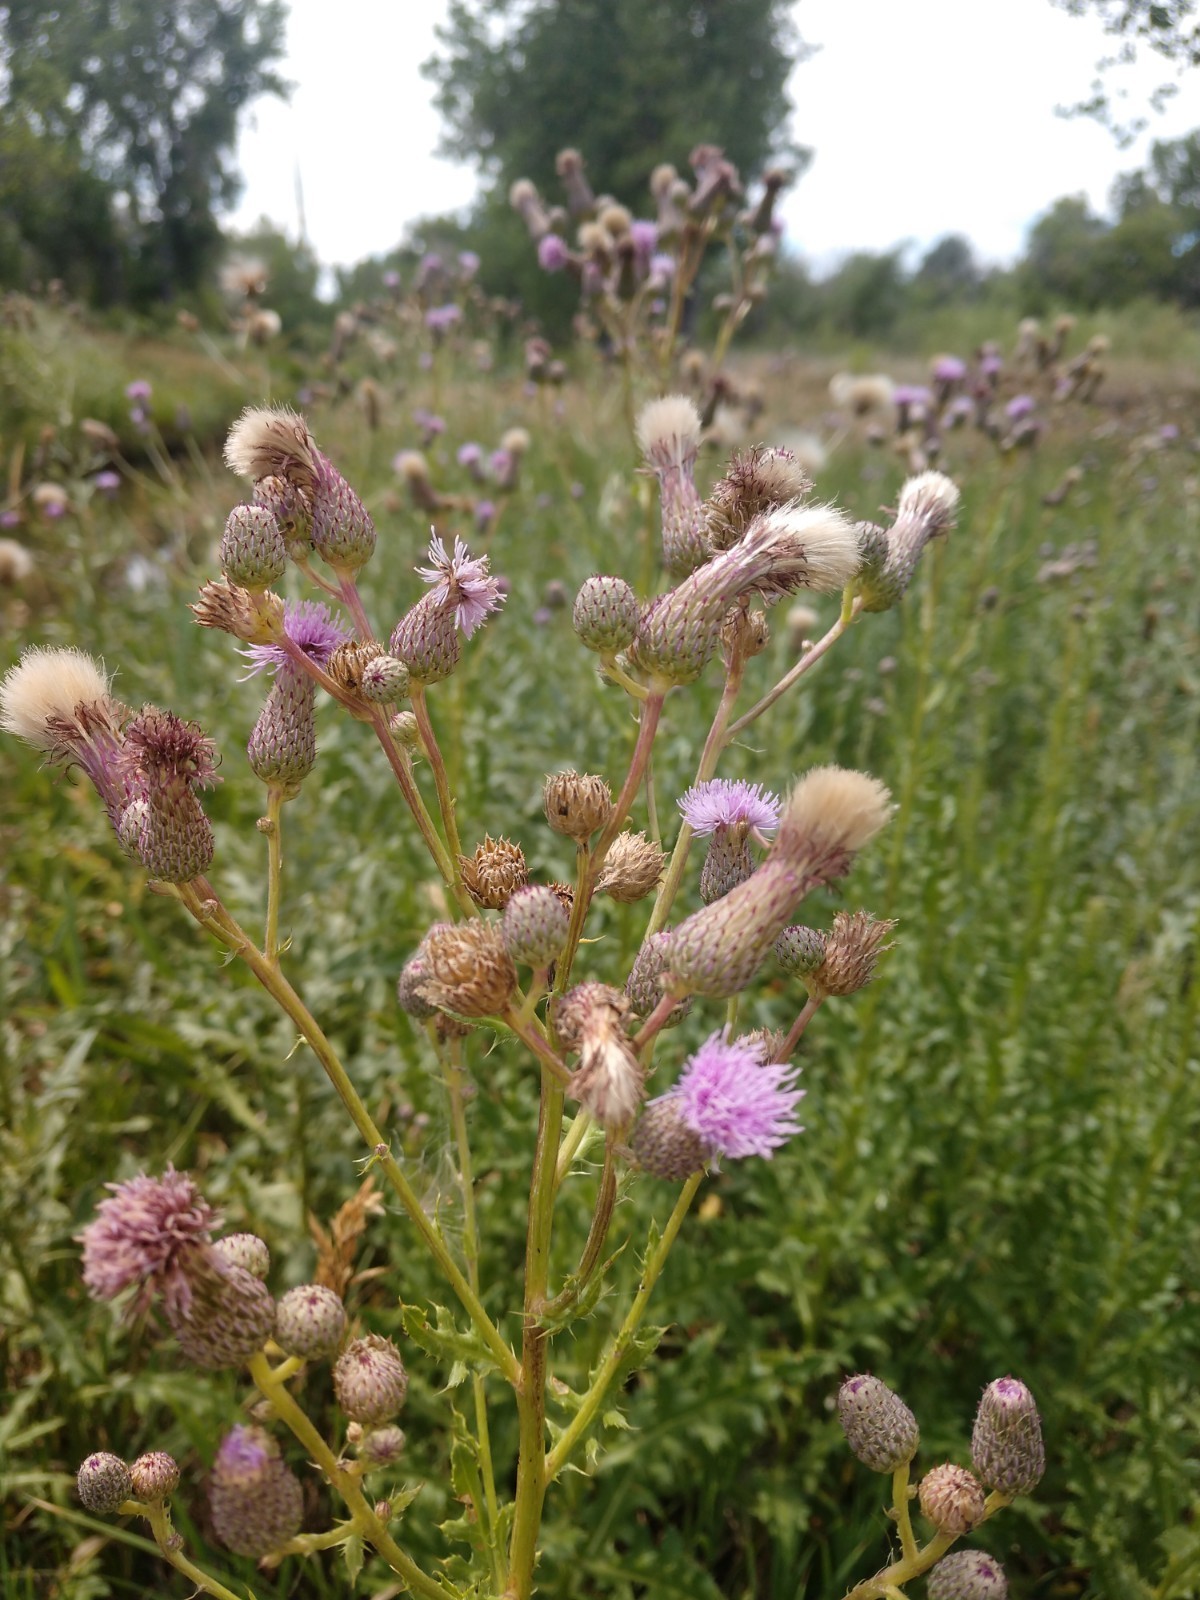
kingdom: Plantae
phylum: Tracheophyta
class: Magnoliopsida
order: Asterales
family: Asteraceae
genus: Cirsium
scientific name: Cirsium arvense
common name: Creeping thistle
